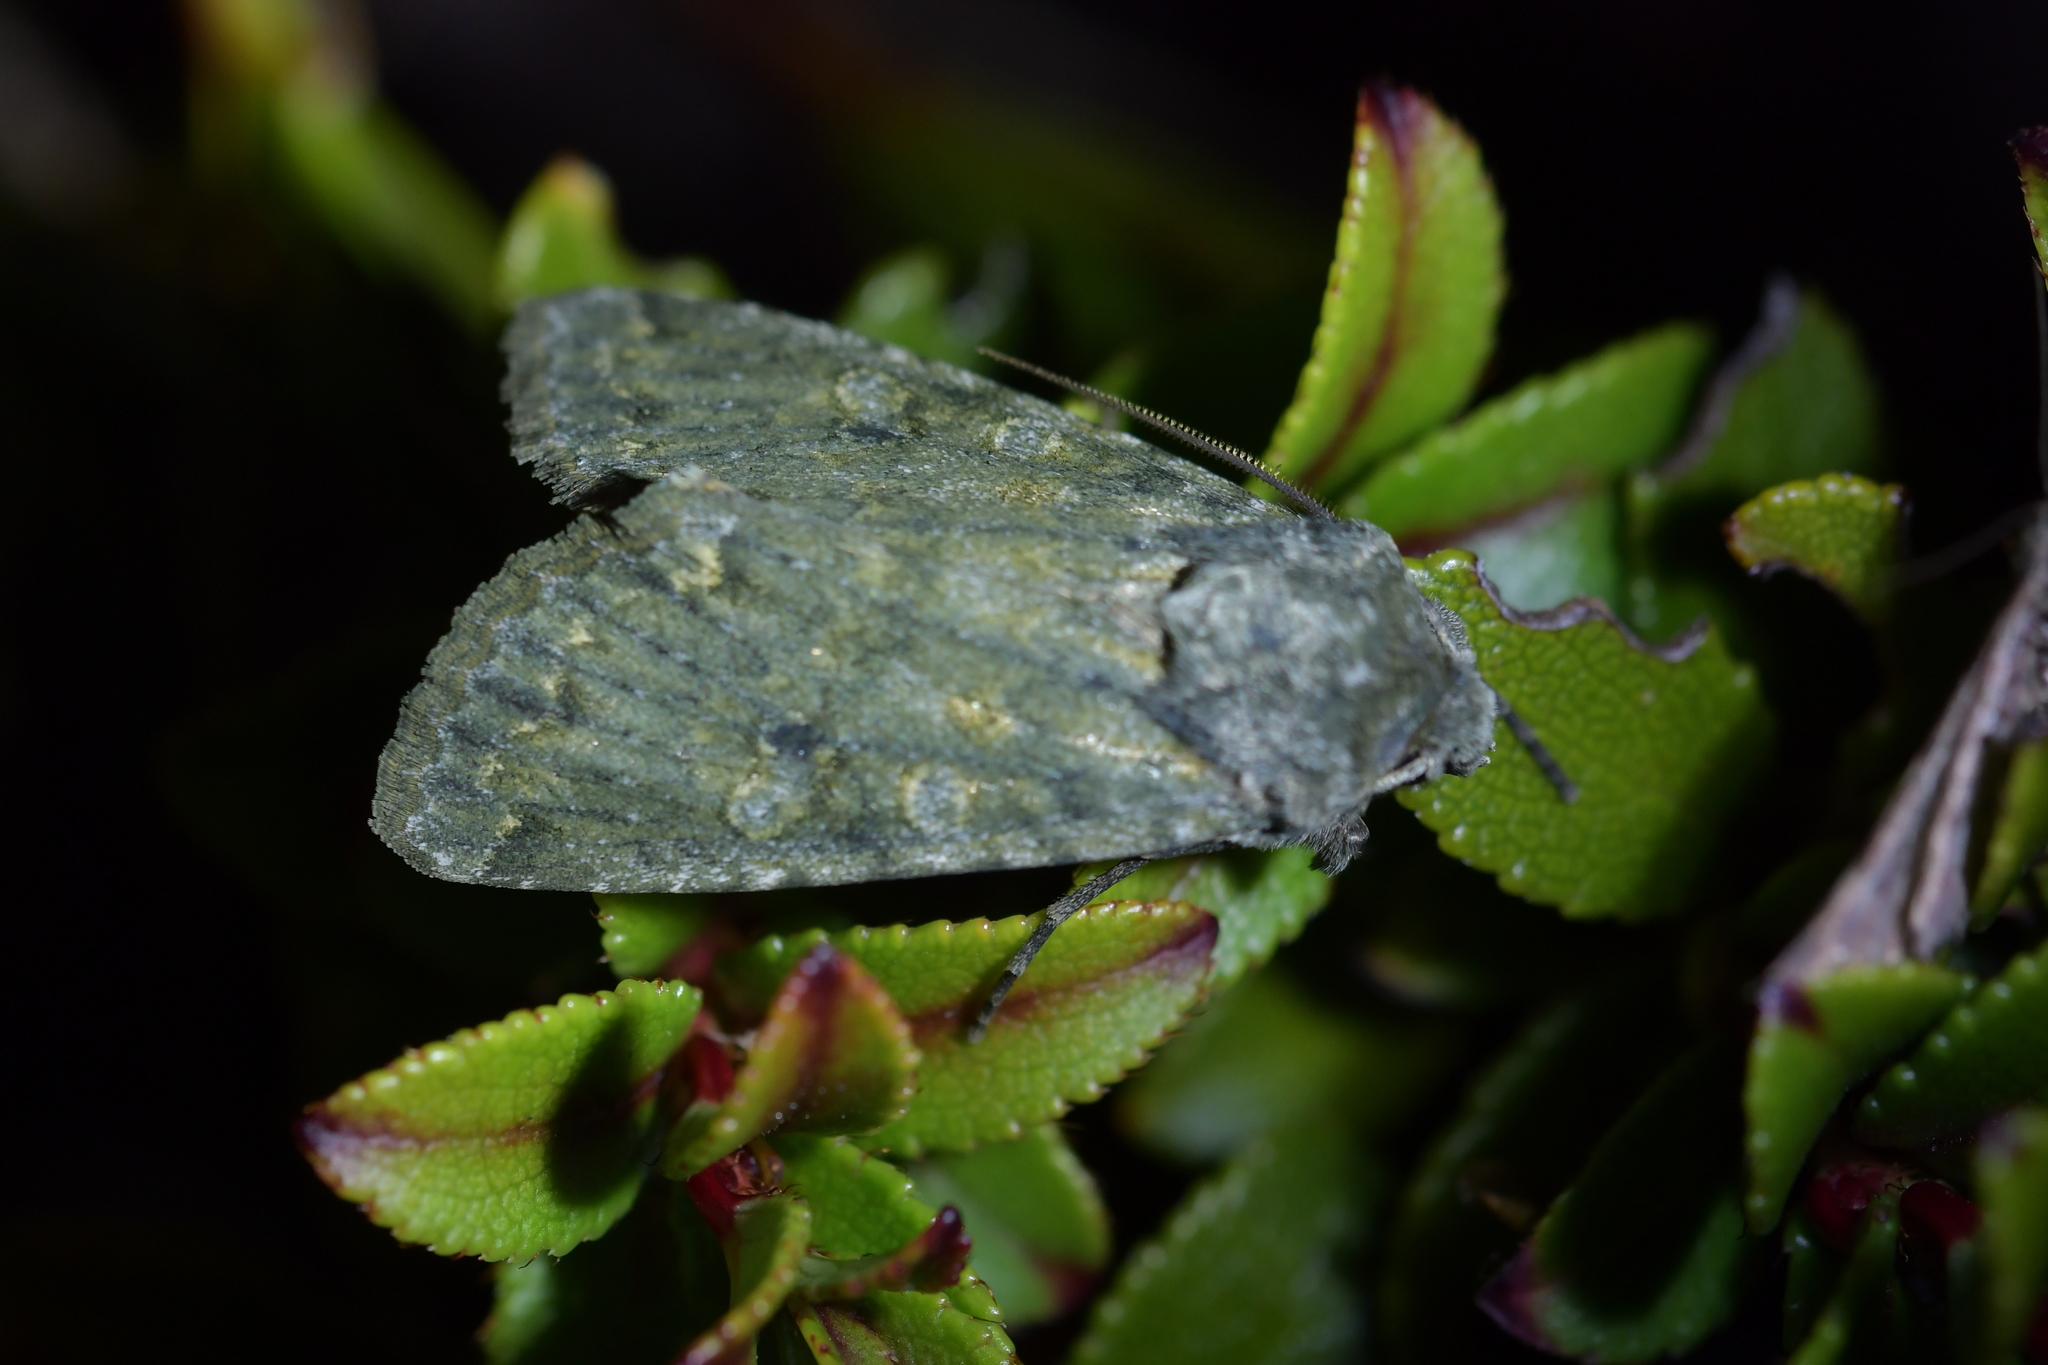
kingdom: Animalia
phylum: Arthropoda
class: Insecta
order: Lepidoptera
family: Noctuidae
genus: Ichneutica
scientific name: Ichneutica
